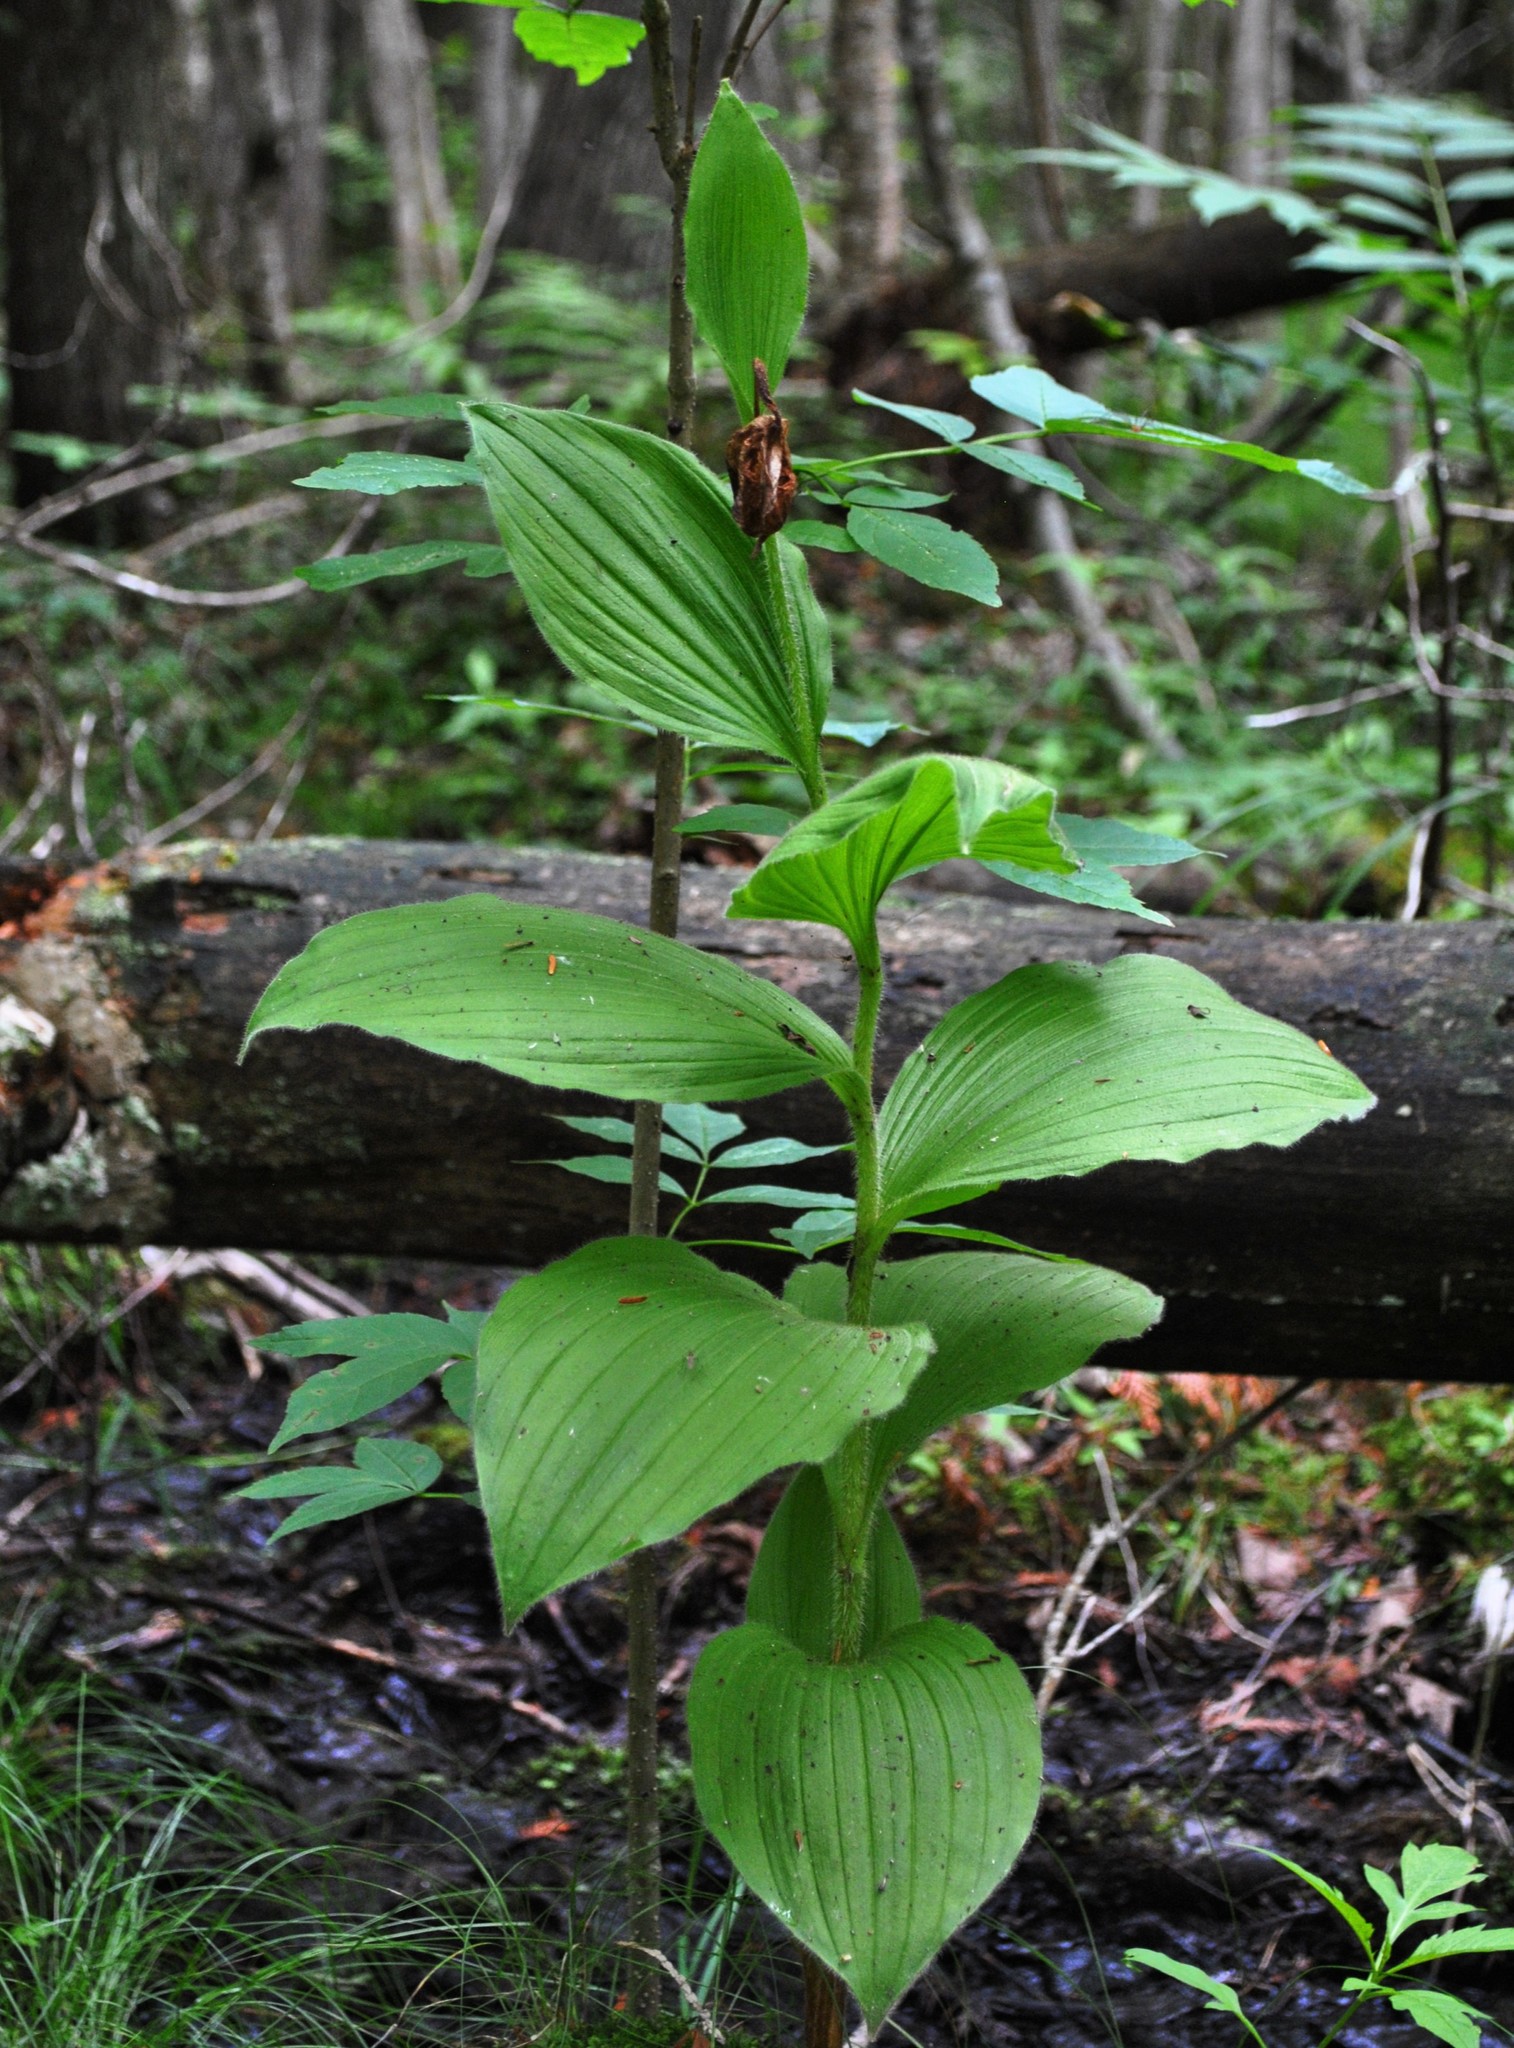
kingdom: Plantae
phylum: Tracheophyta
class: Liliopsida
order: Asparagales
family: Orchidaceae
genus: Cypripedium
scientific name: Cypripedium reginae
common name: Queen lady's-slipper
